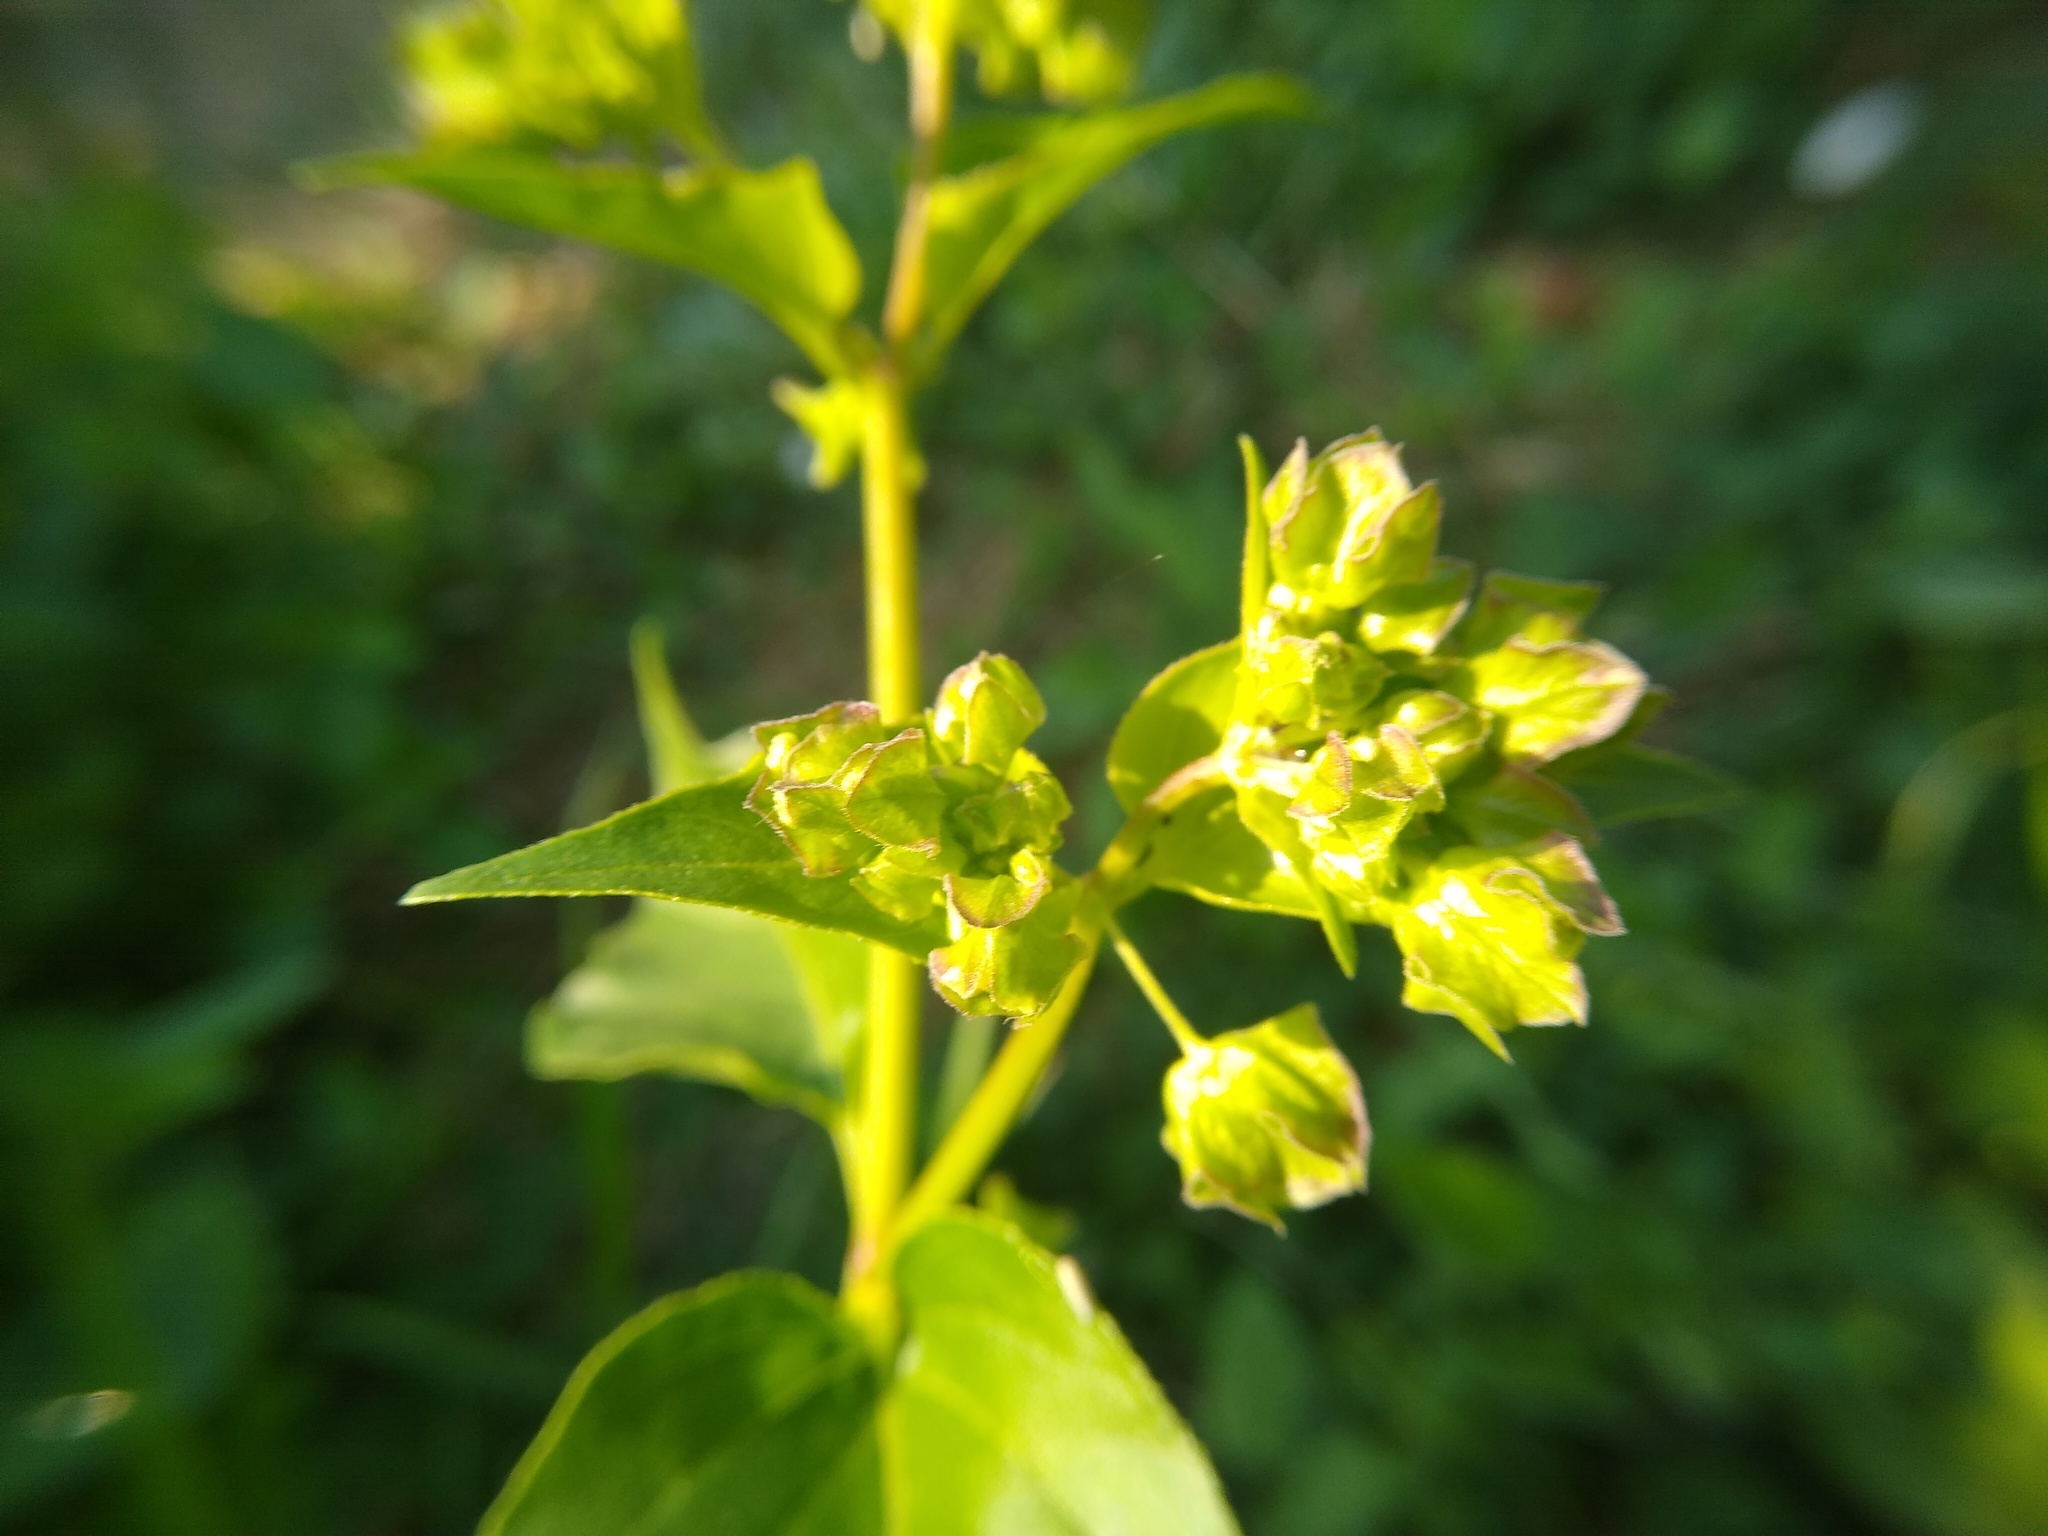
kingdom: Plantae
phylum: Tracheophyta
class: Magnoliopsida
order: Caryophyllales
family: Nyctaginaceae
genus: Mirabilis
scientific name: Mirabilis nyctaginea
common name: Umbrella wort
